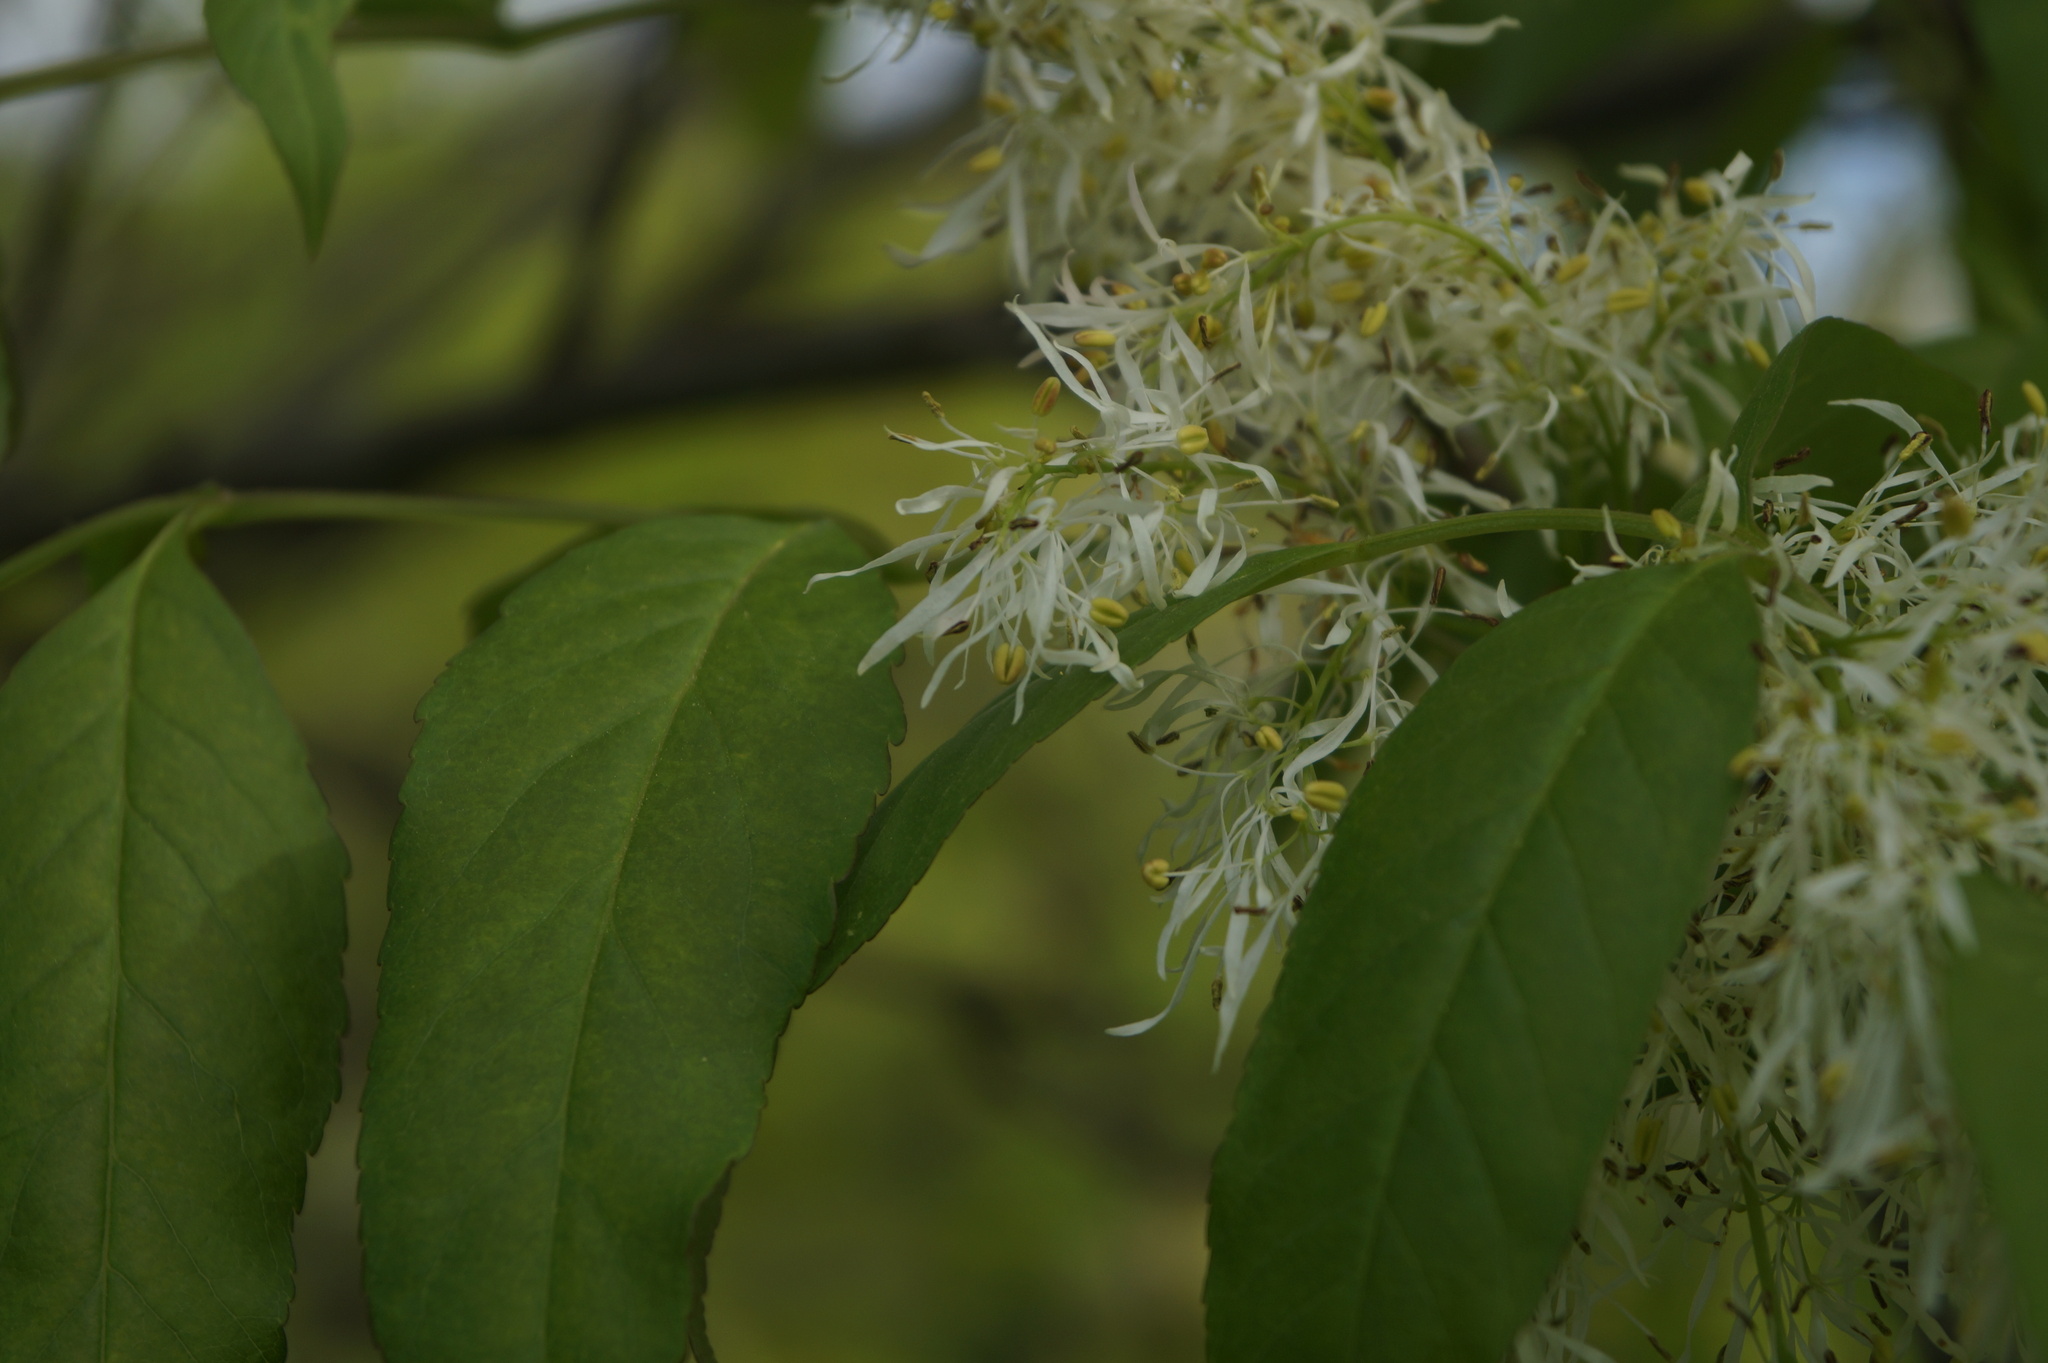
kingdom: Plantae
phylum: Tracheophyta
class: Magnoliopsida
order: Lamiales
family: Oleaceae
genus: Fraxinus
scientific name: Fraxinus ornus
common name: Manna ash
